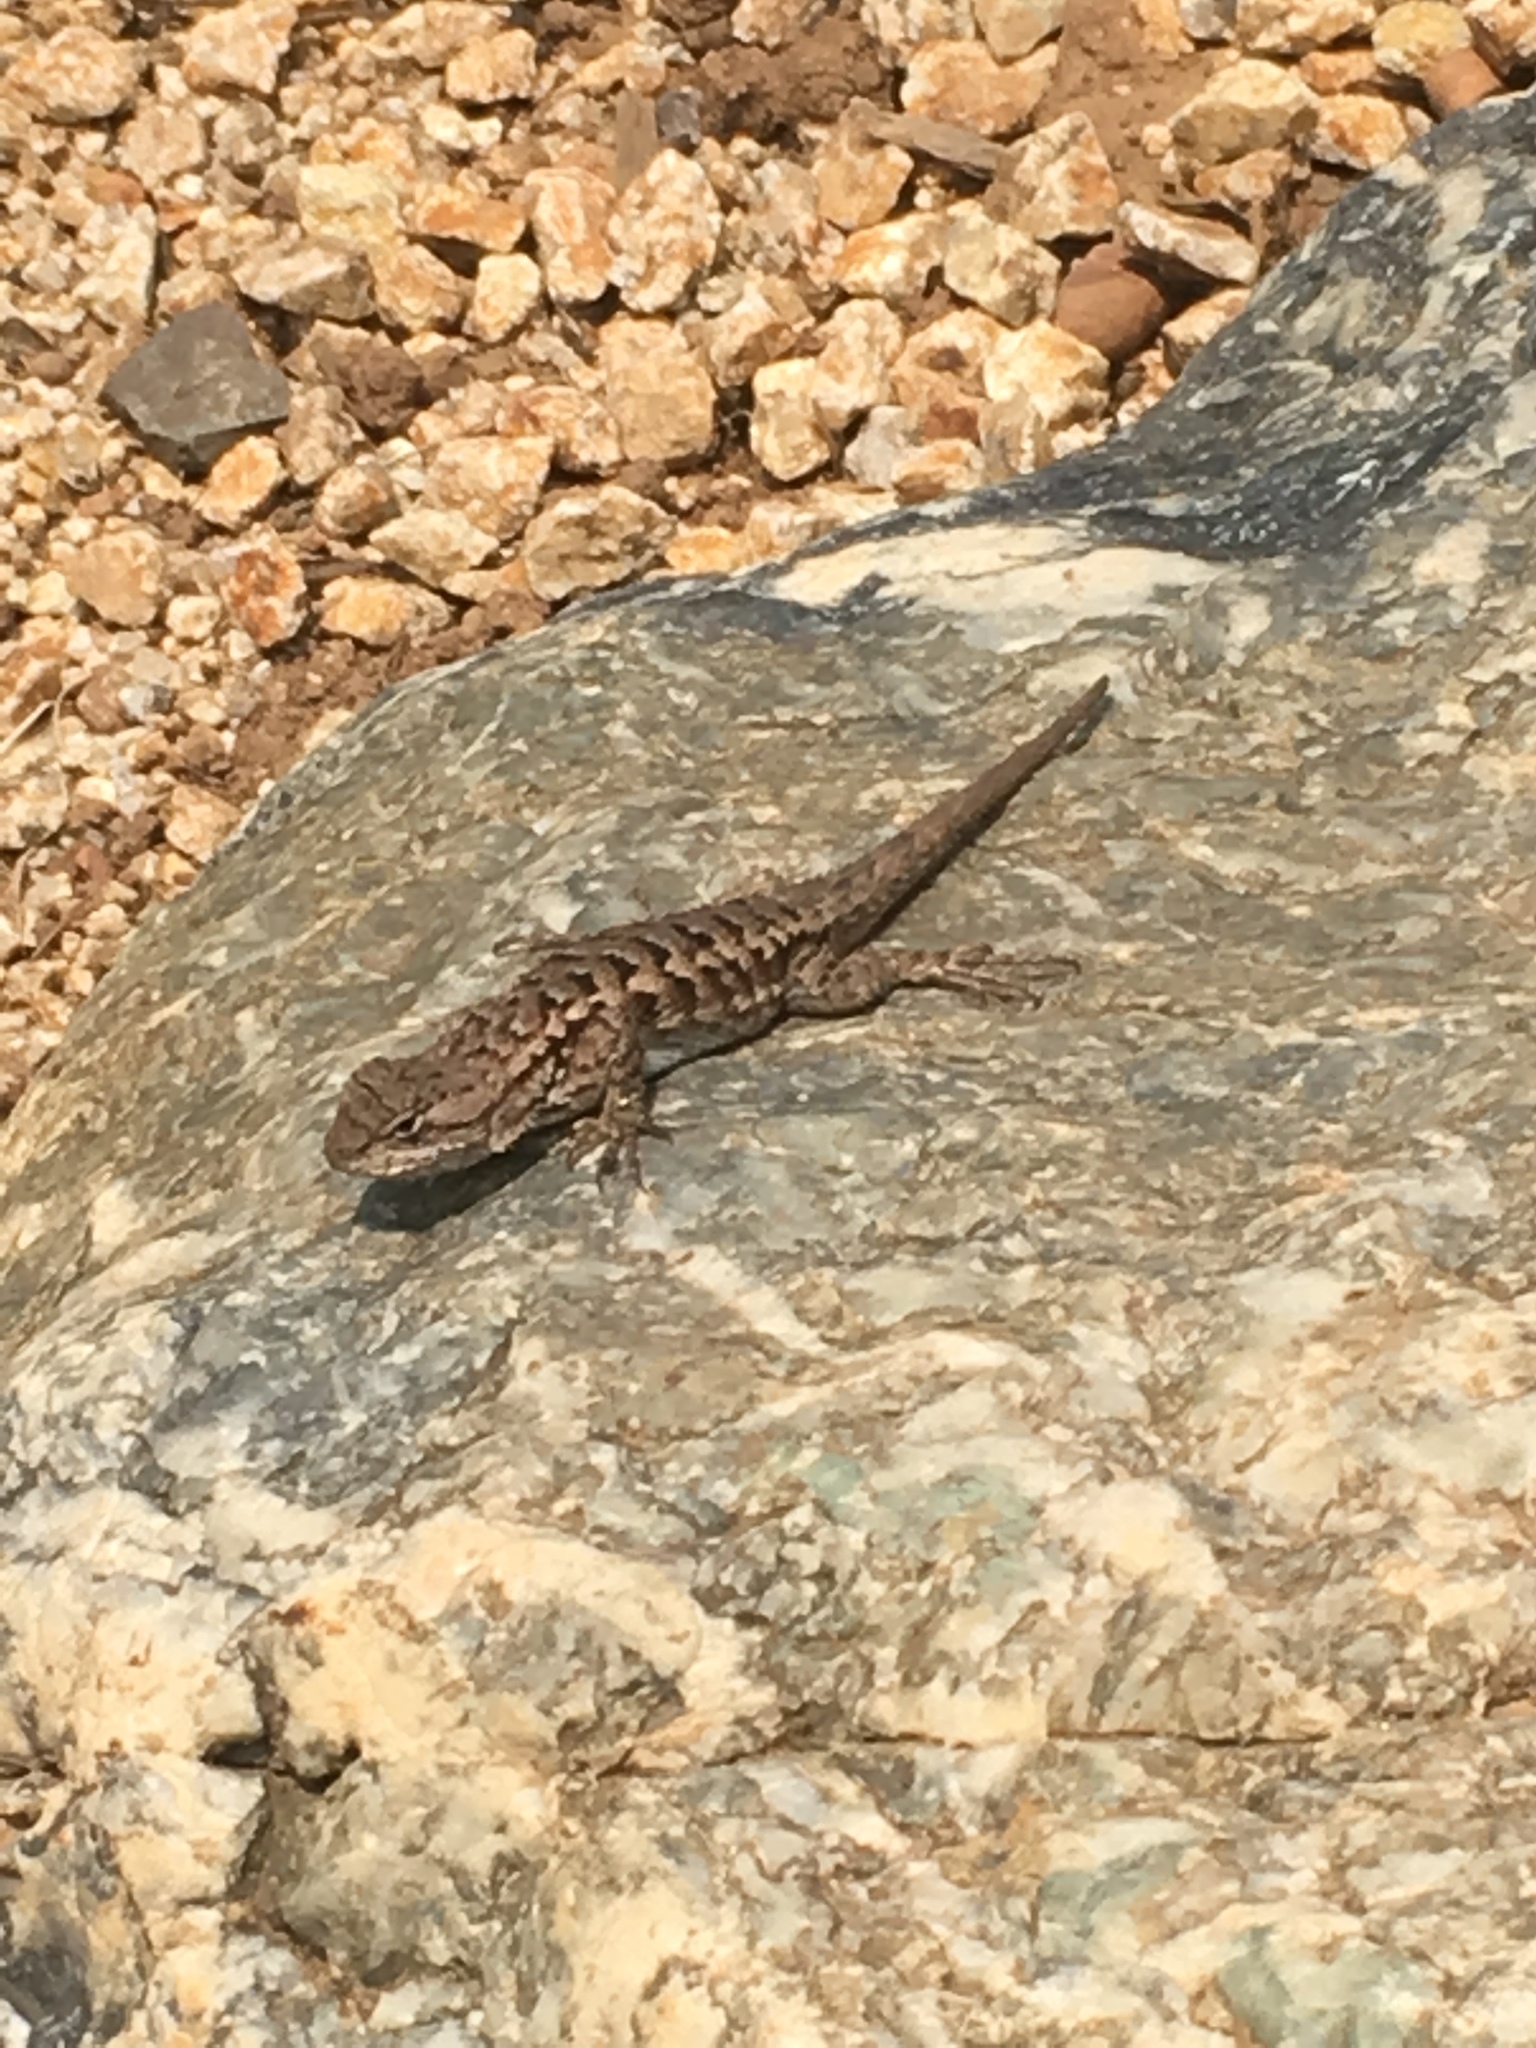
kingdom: Animalia
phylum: Chordata
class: Squamata
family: Phrynosomatidae
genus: Sceloporus
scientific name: Sceloporus occidentalis
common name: Western fence lizard
